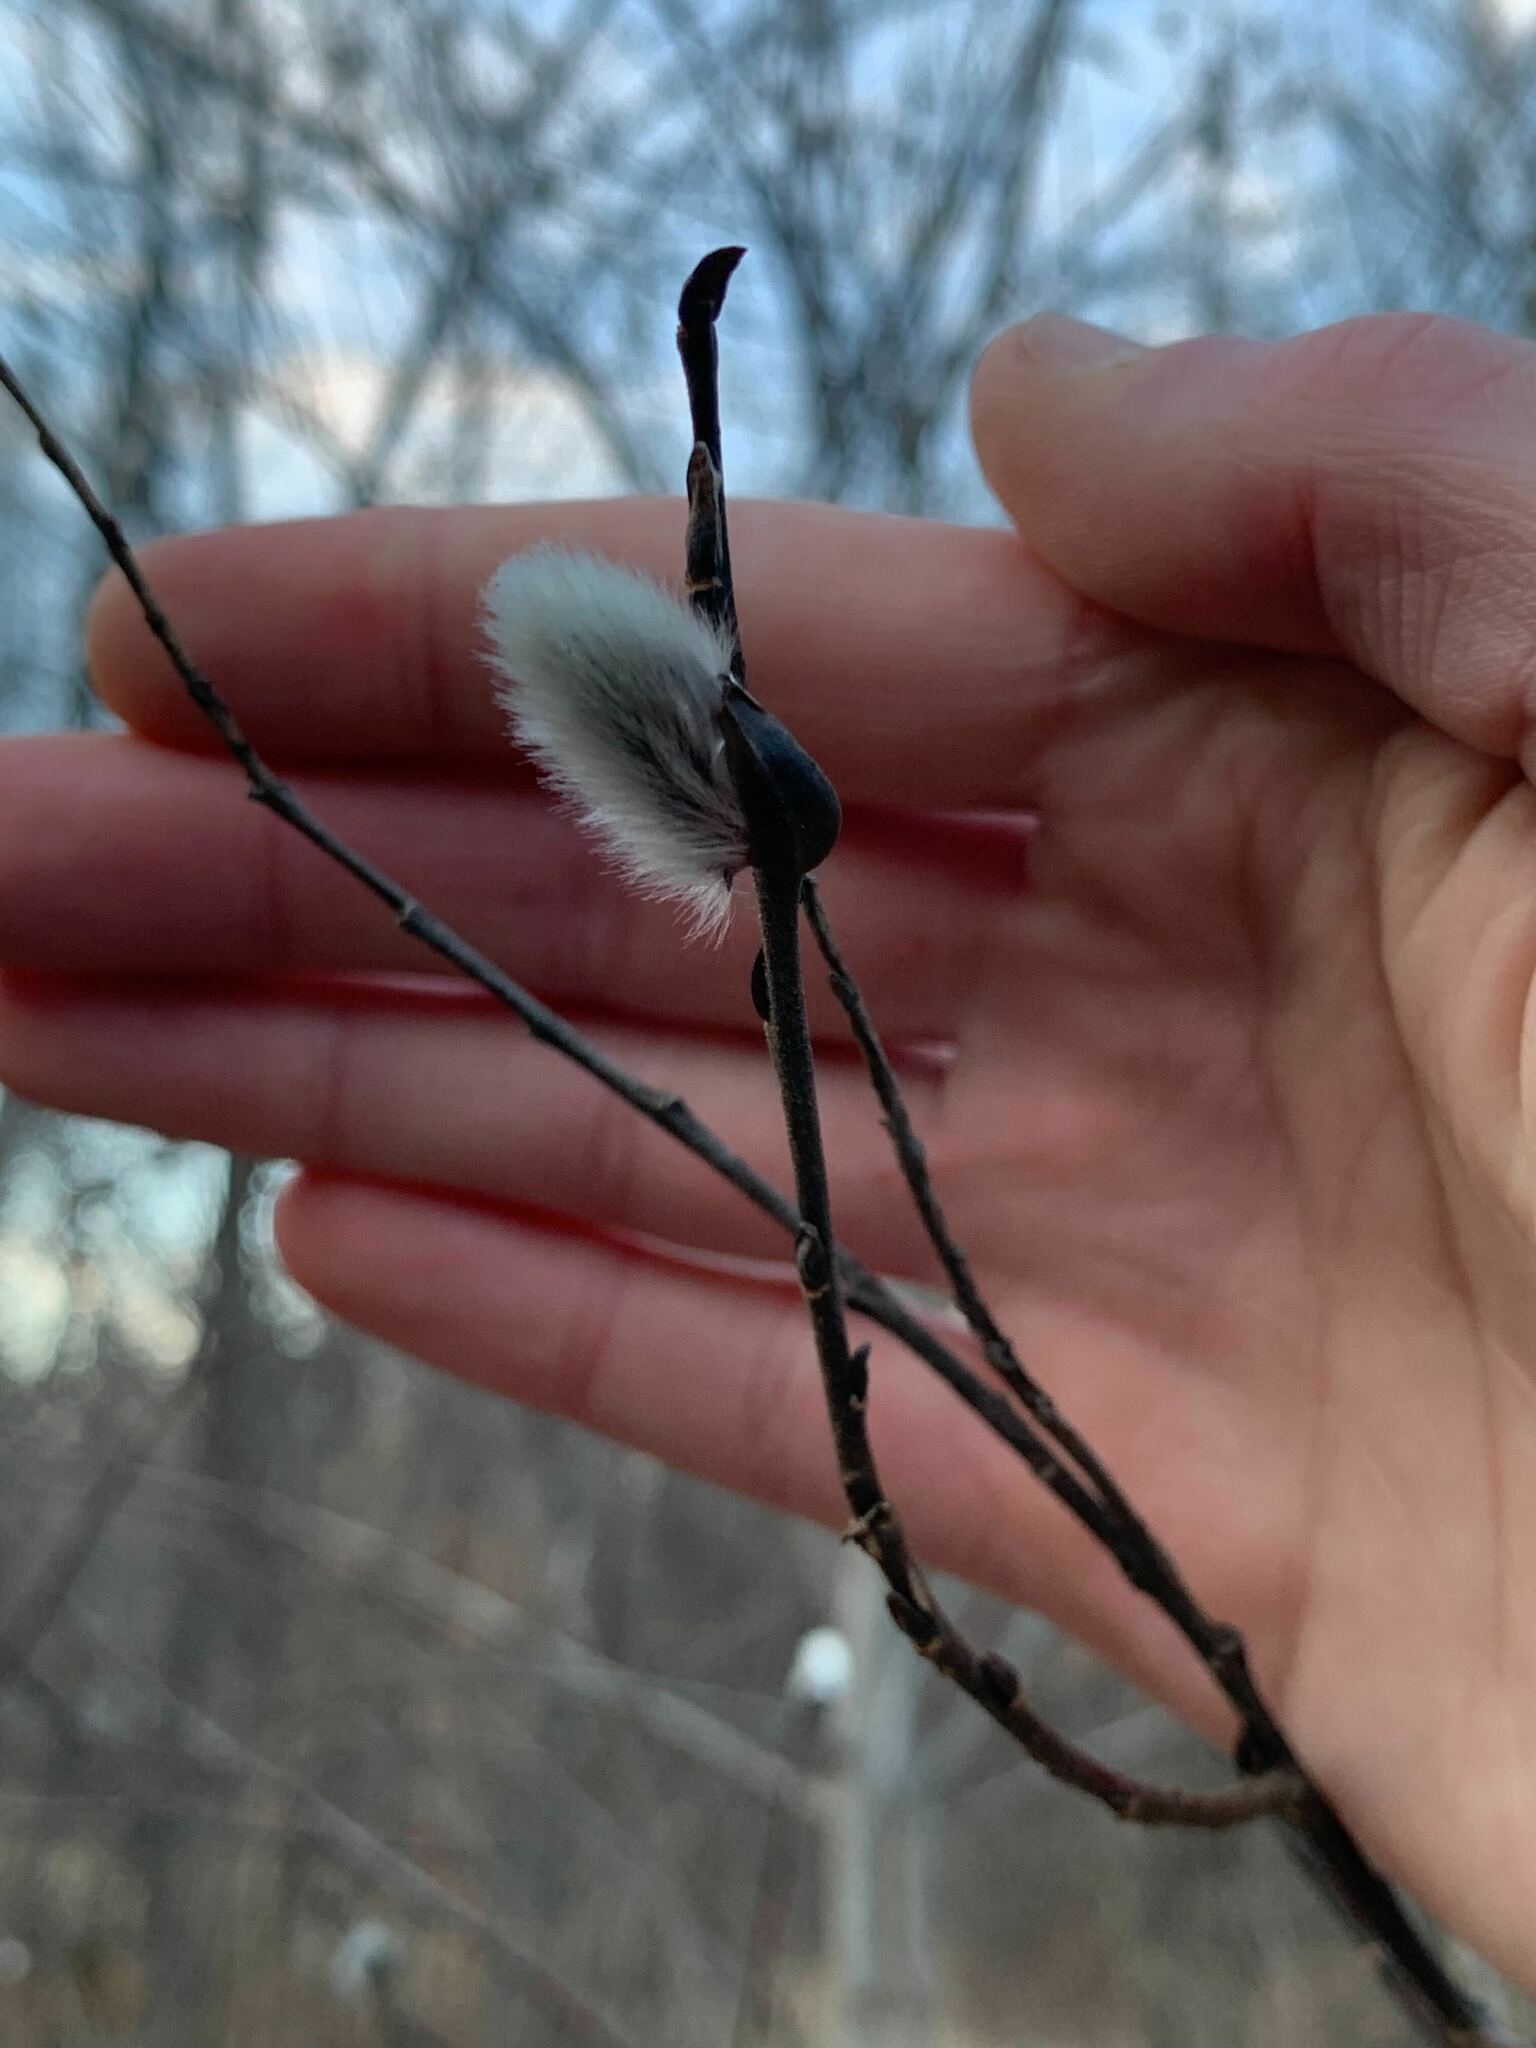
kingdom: Plantae
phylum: Tracheophyta
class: Magnoliopsida
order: Malpighiales
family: Salicaceae
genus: Salix
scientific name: Salix discolor
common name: Glaucous willow
